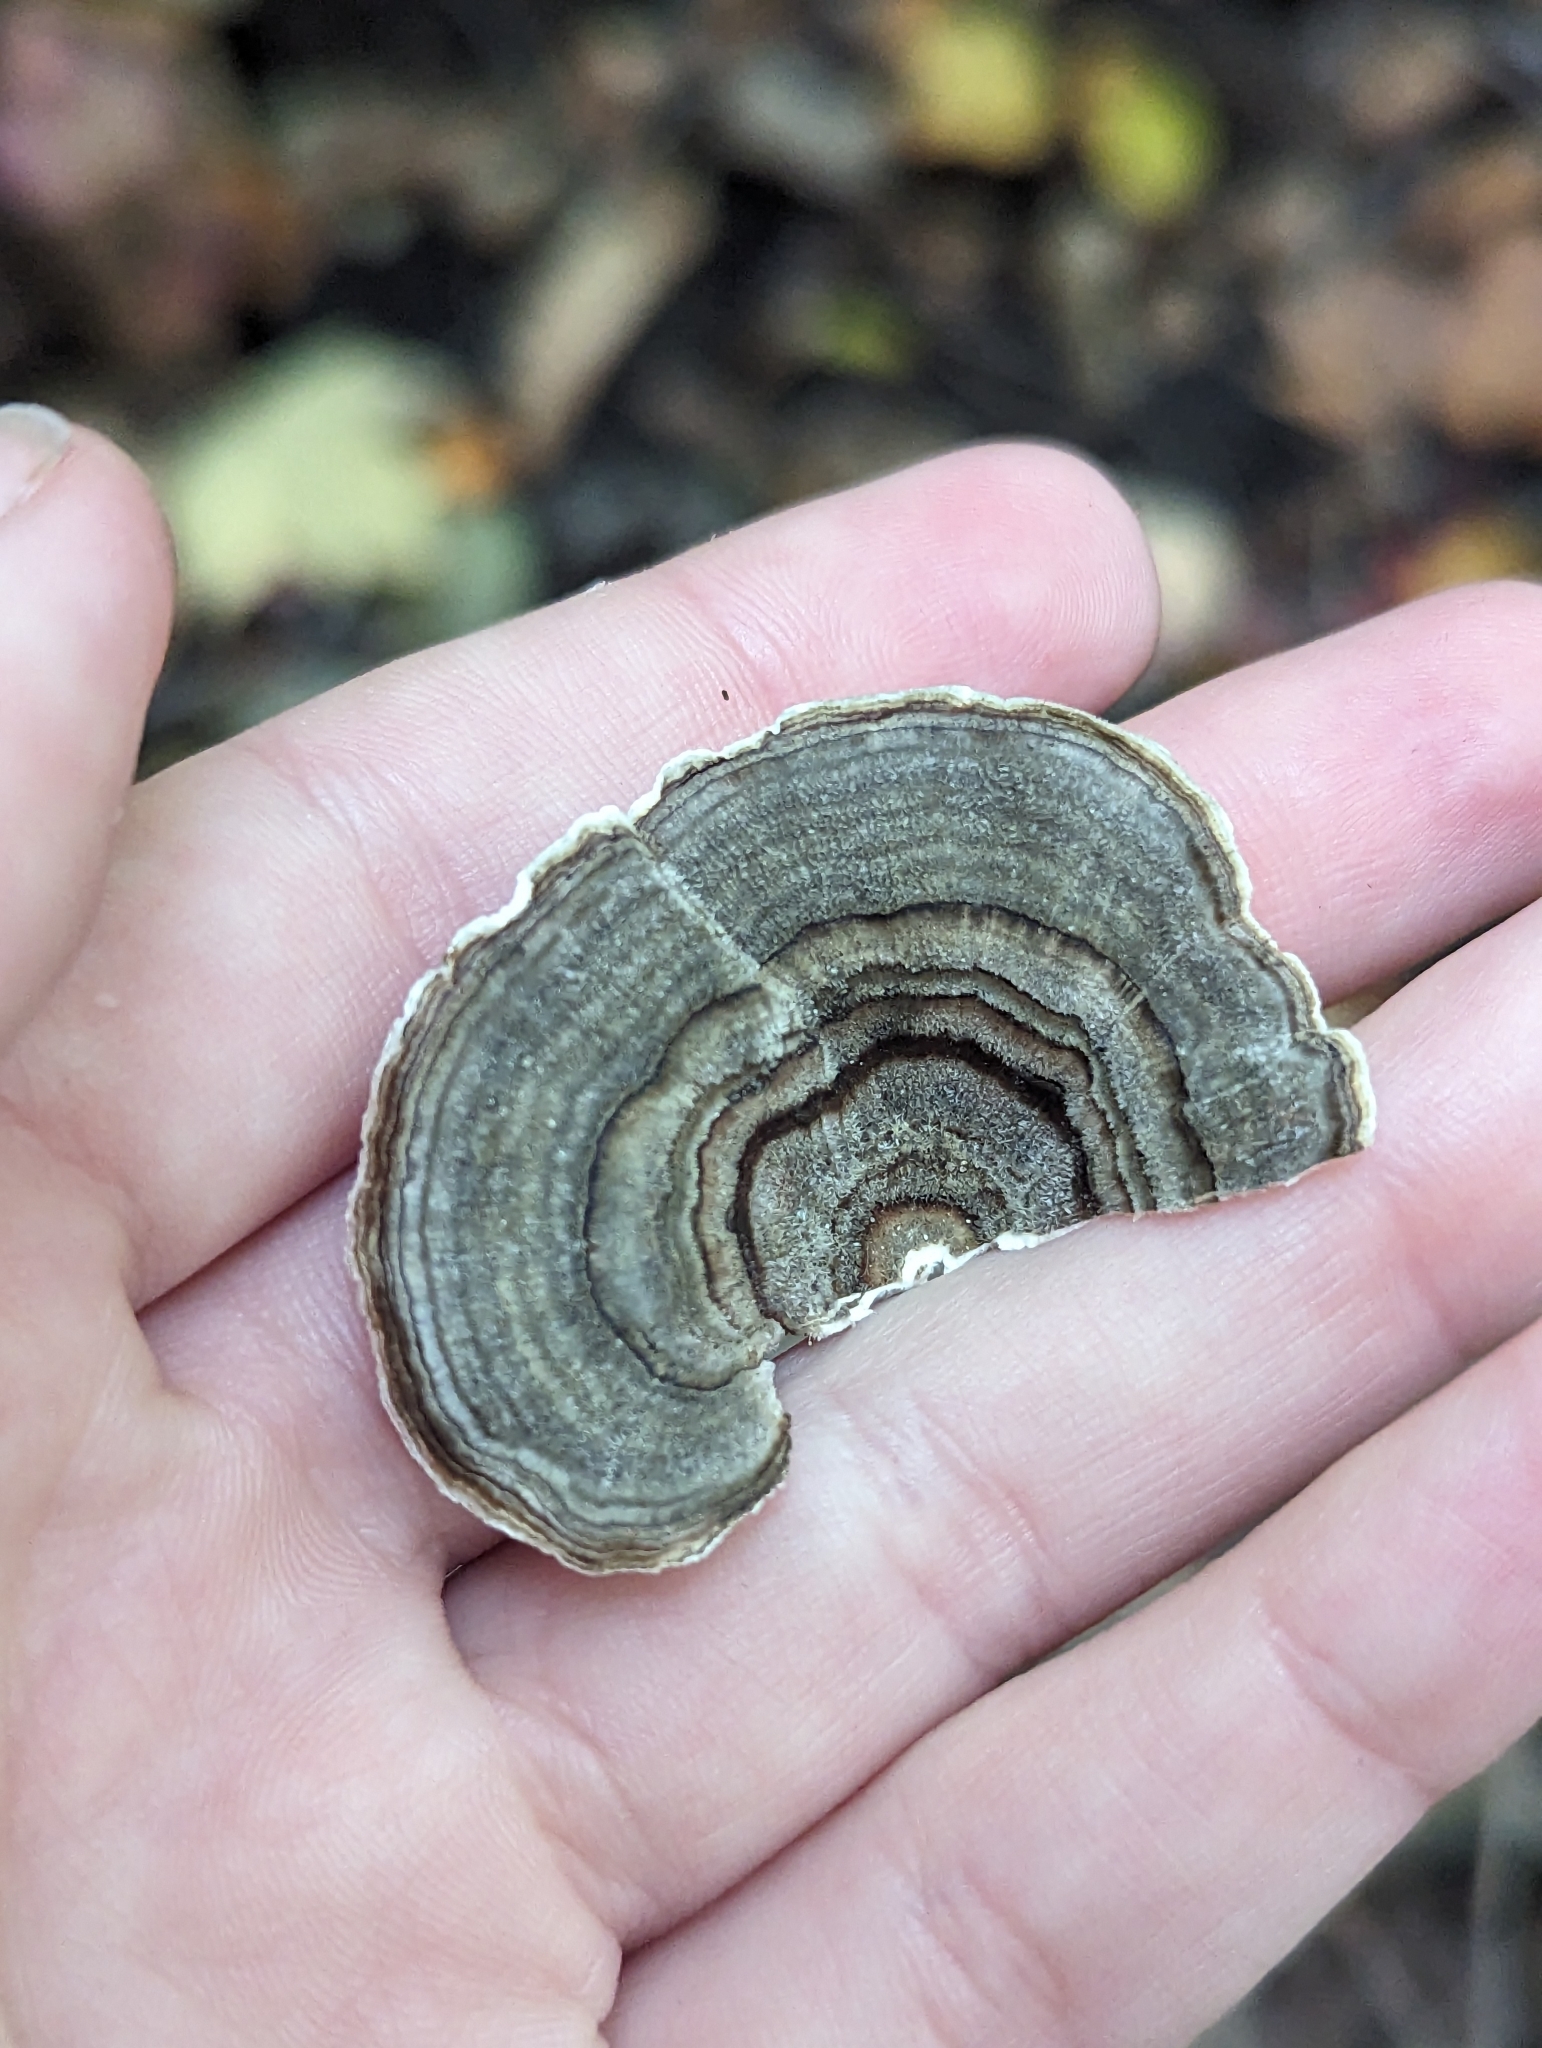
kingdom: Fungi
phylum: Basidiomycota
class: Agaricomycetes
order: Polyporales
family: Polyporaceae
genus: Trametes
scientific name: Trametes versicolor
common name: Turkeytail
